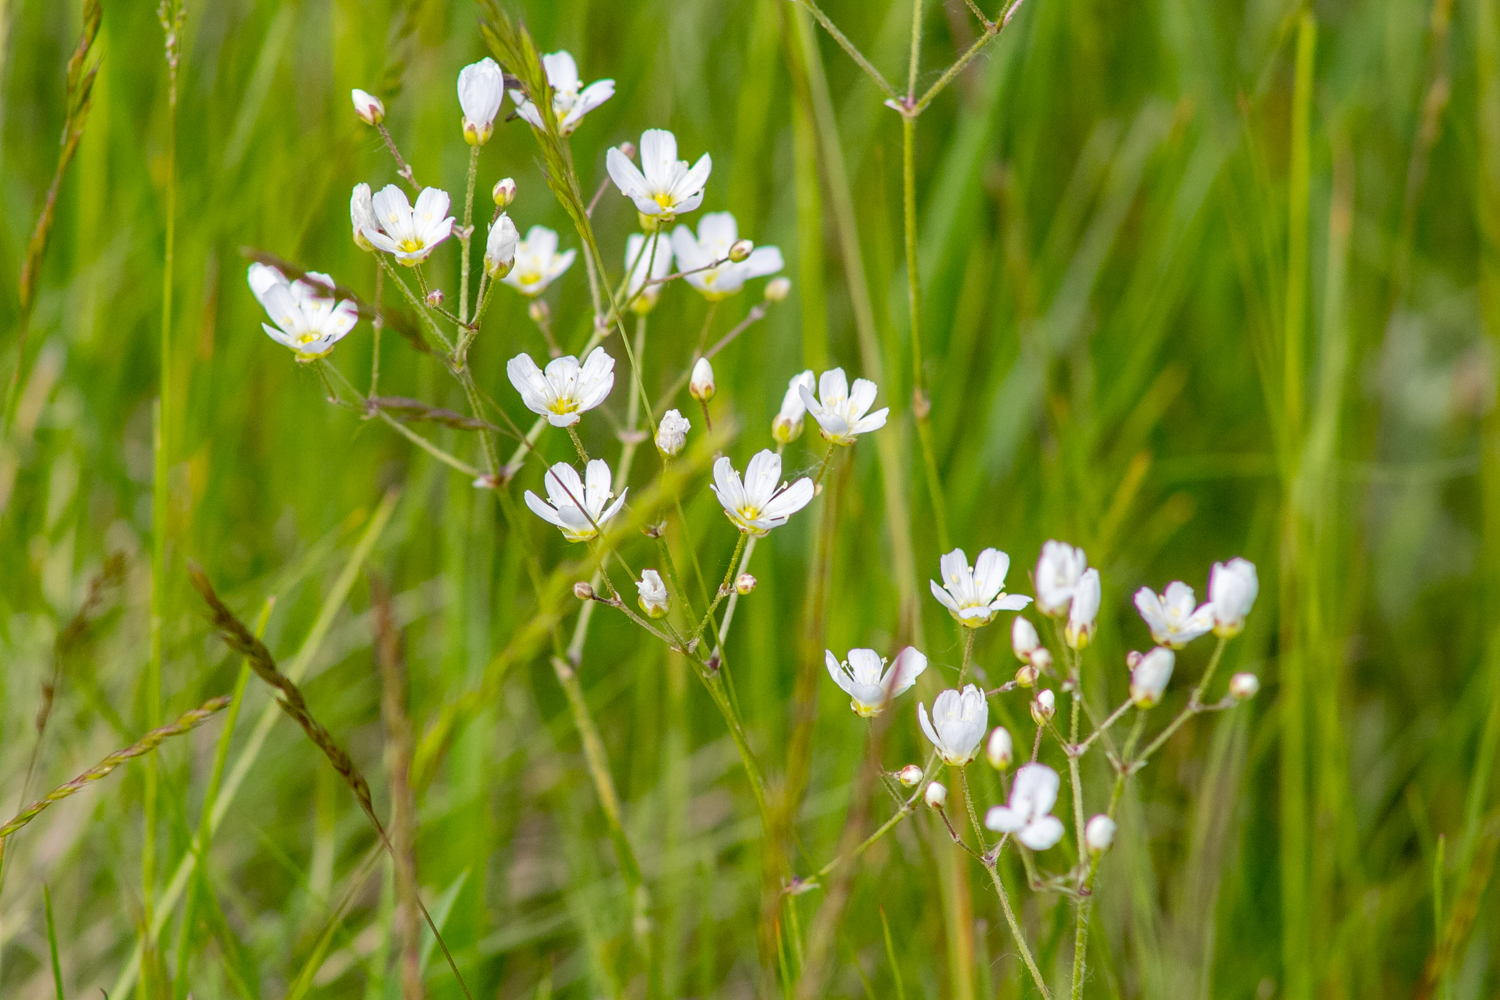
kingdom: Plantae
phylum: Tracheophyta
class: Magnoliopsida
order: Caryophyllales
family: Caryophyllaceae
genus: Eremogone
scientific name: Eremogone biebersteinii
